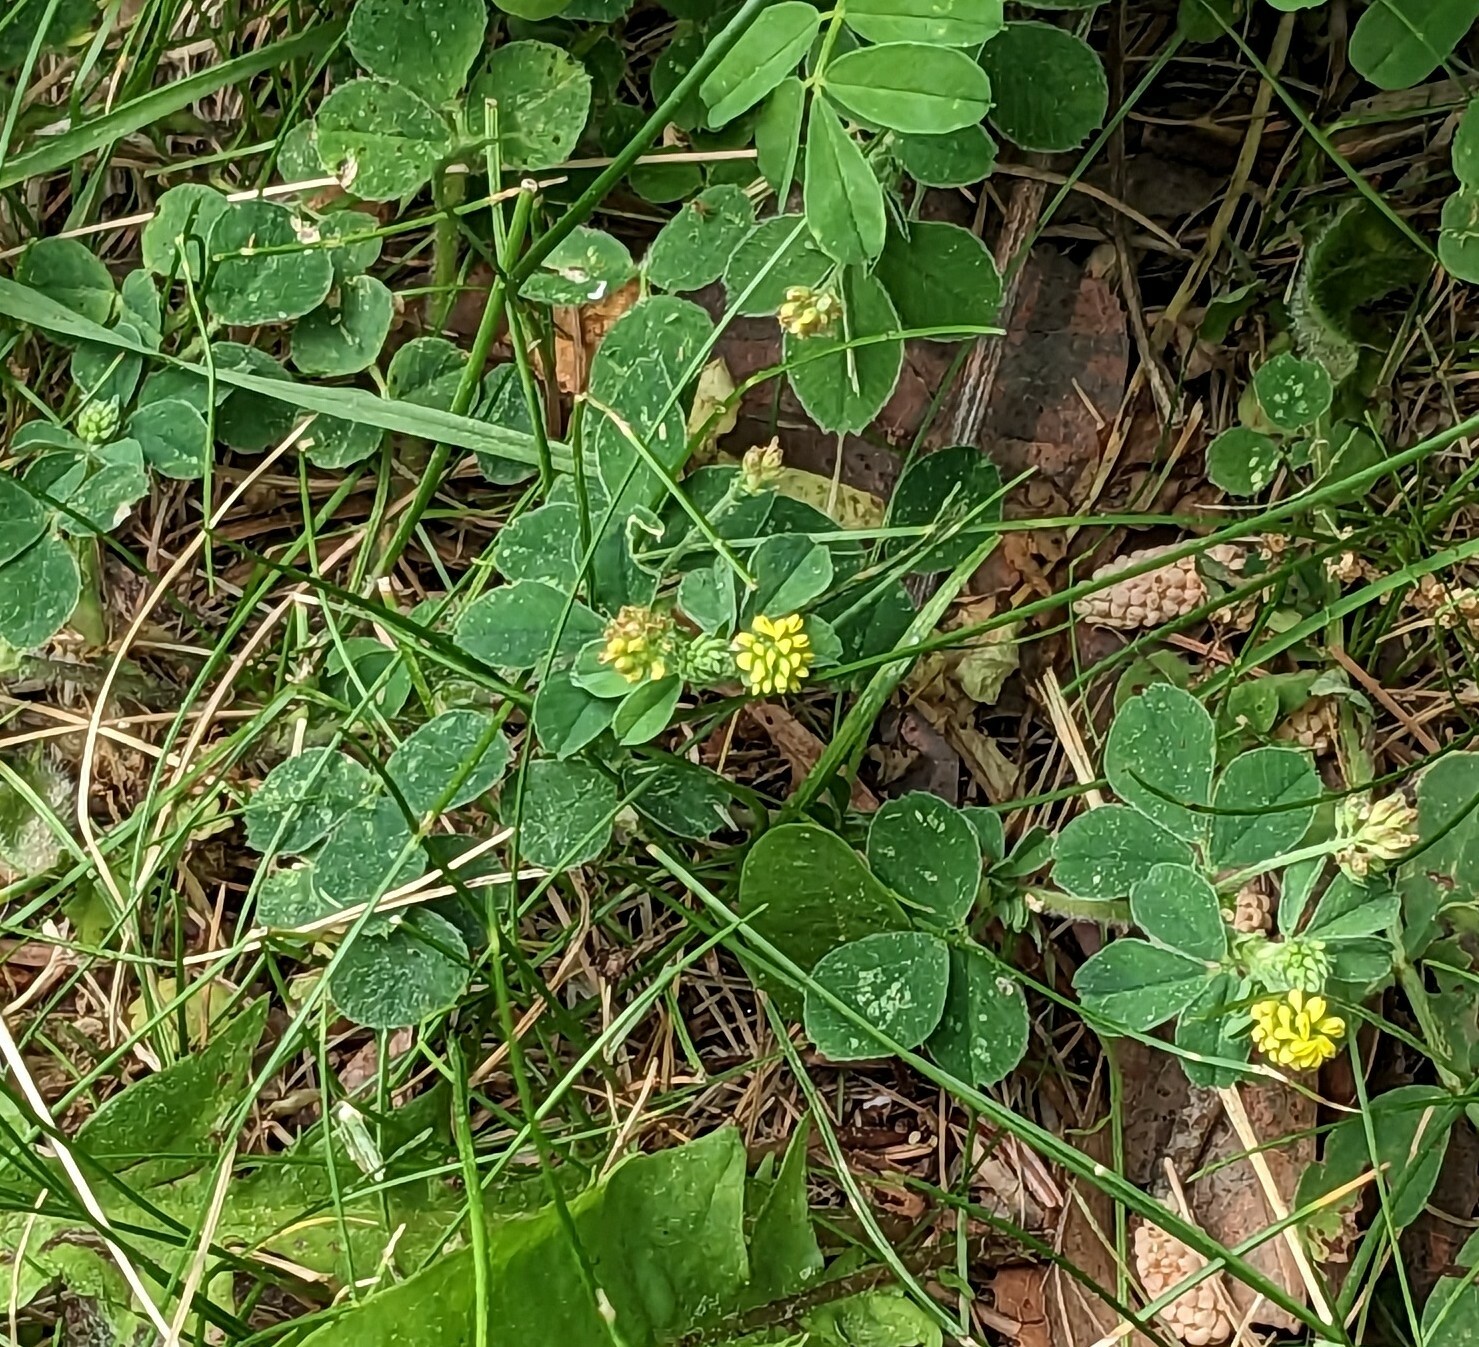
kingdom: Plantae
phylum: Tracheophyta
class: Magnoliopsida
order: Fabales
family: Fabaceae
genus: Medicago
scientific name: Medicago lupulina
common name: Black medick
